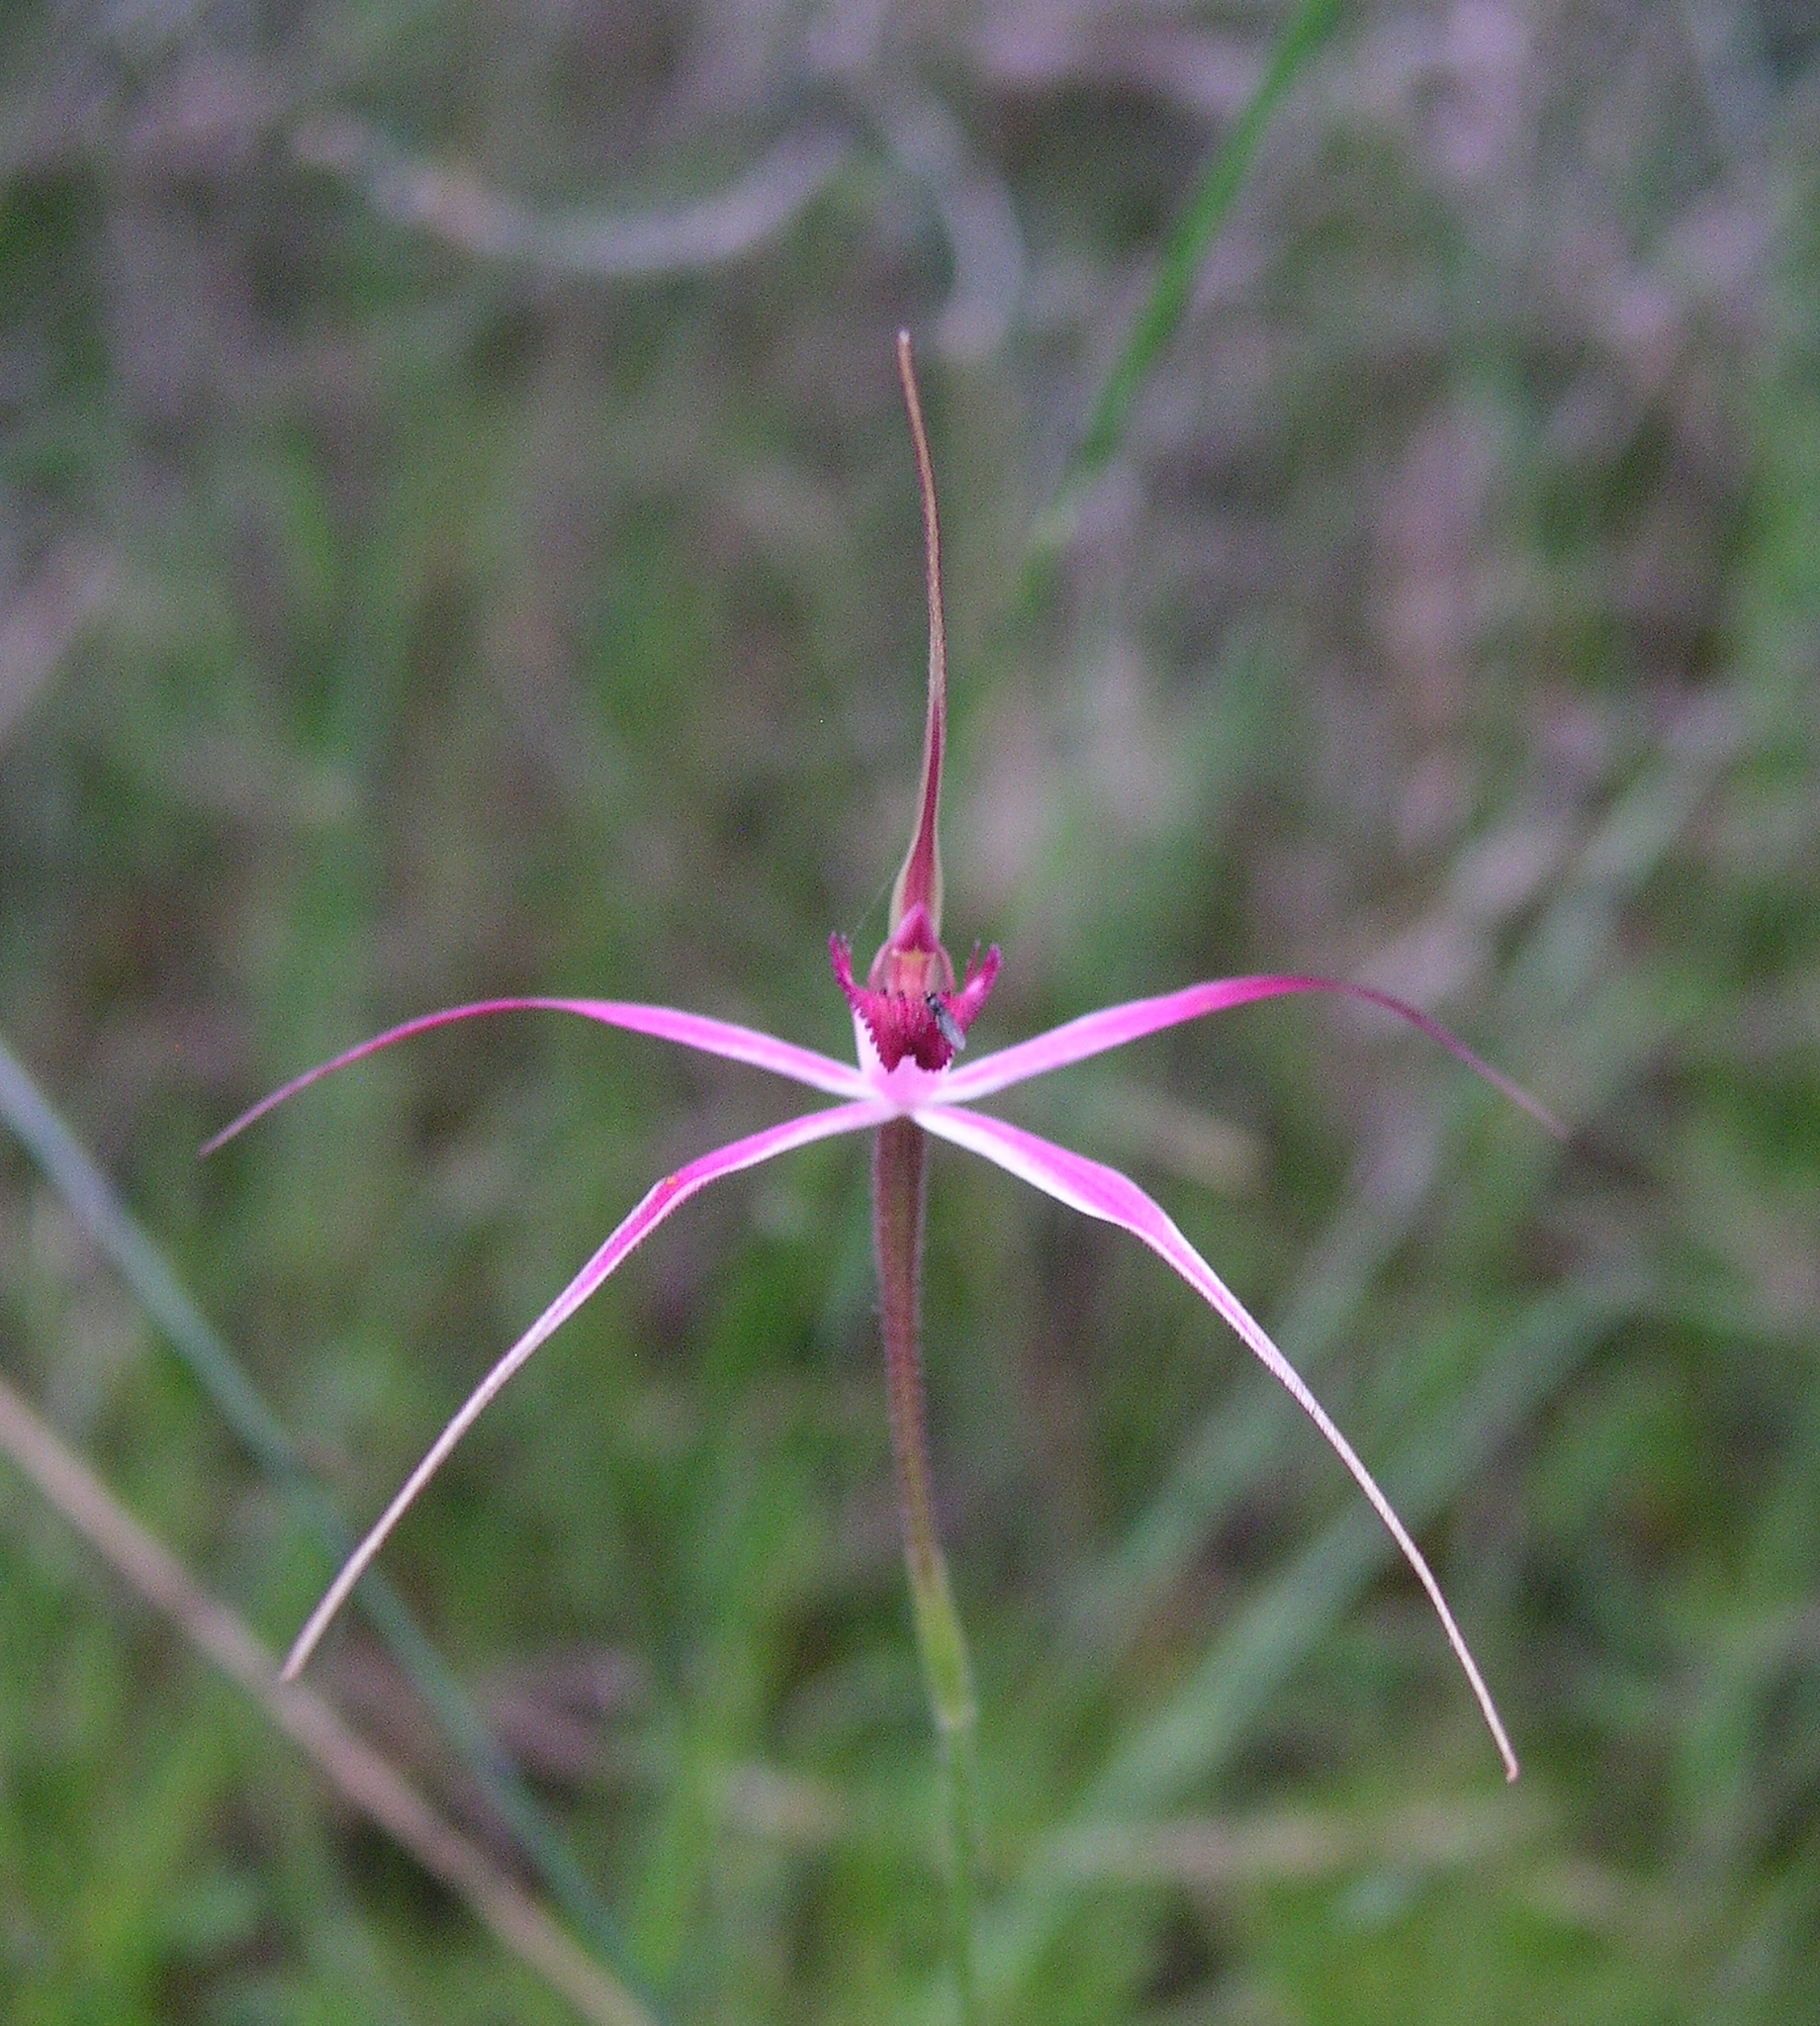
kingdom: Plantae
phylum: Tracheophyta
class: Liliopsida
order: Asparagales
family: Orchidaceae
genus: Caladenia
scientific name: Caladenia harringtoniae
